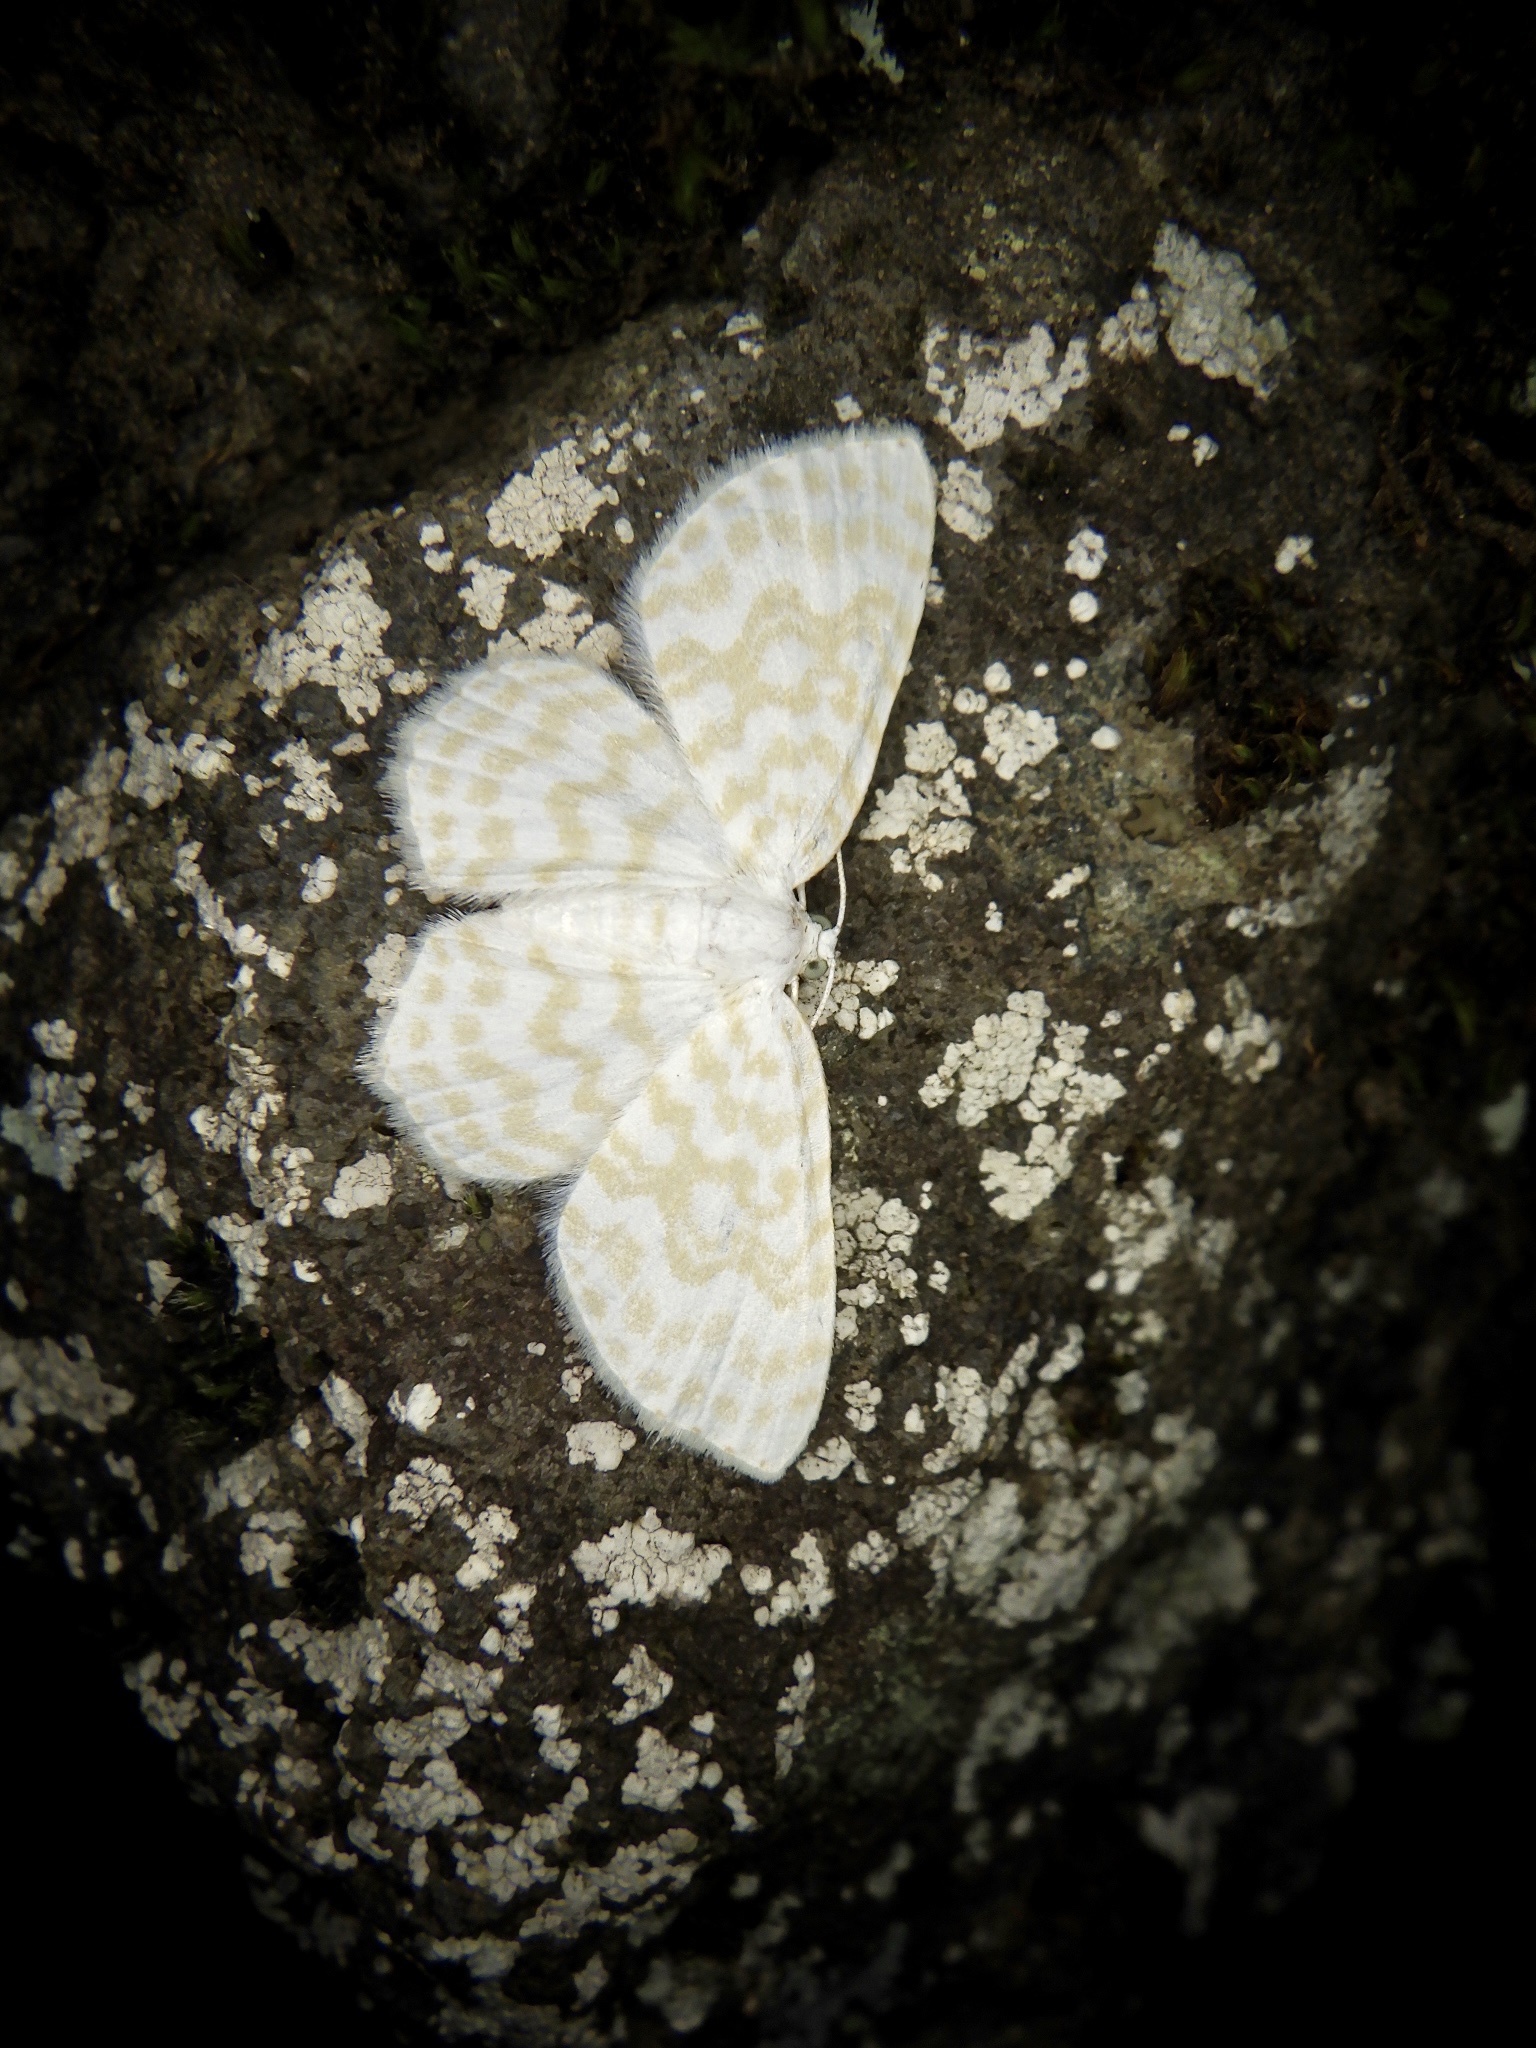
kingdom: Animalia
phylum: Arthropoda
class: Insecta
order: Lepidoptera
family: Geometridae
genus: Asthena
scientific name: Asthena nymphaeata
